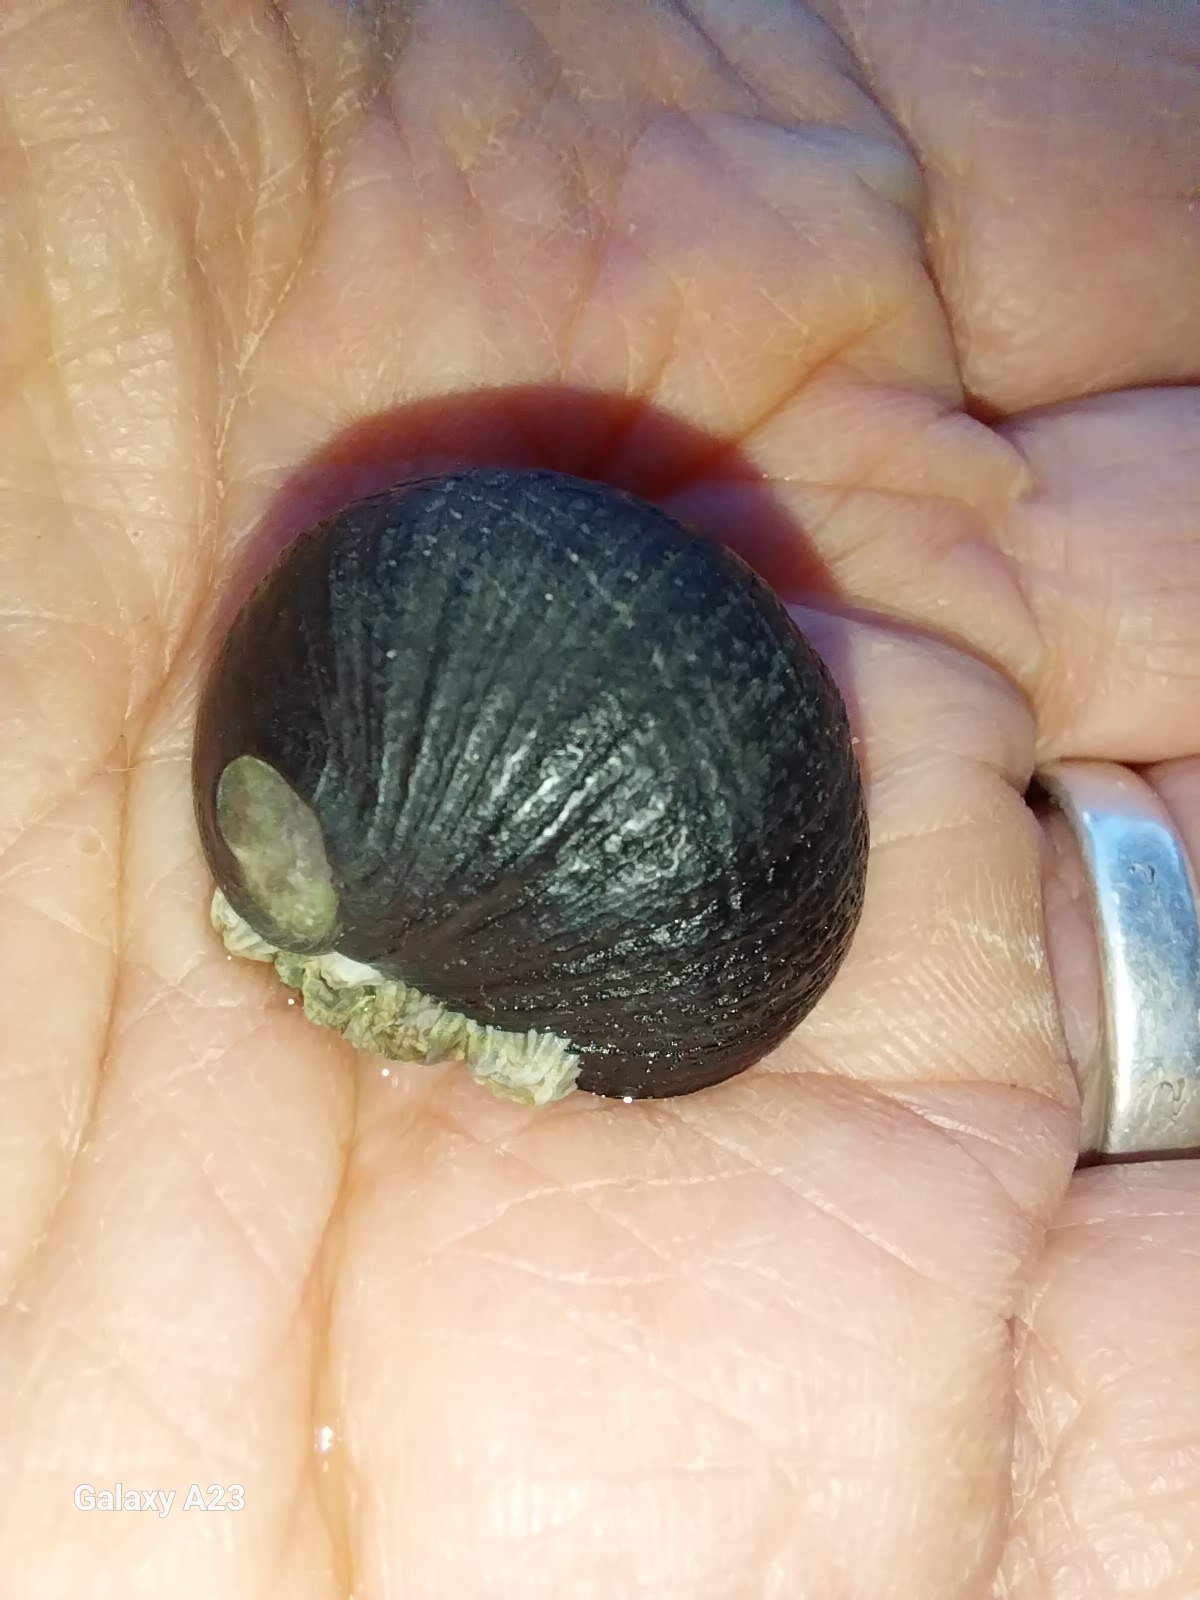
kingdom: Animalia
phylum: Mollusca
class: Gastropoda
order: Cycloneritida
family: Neritidae
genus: Nerita
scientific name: Nerita melanotragus
